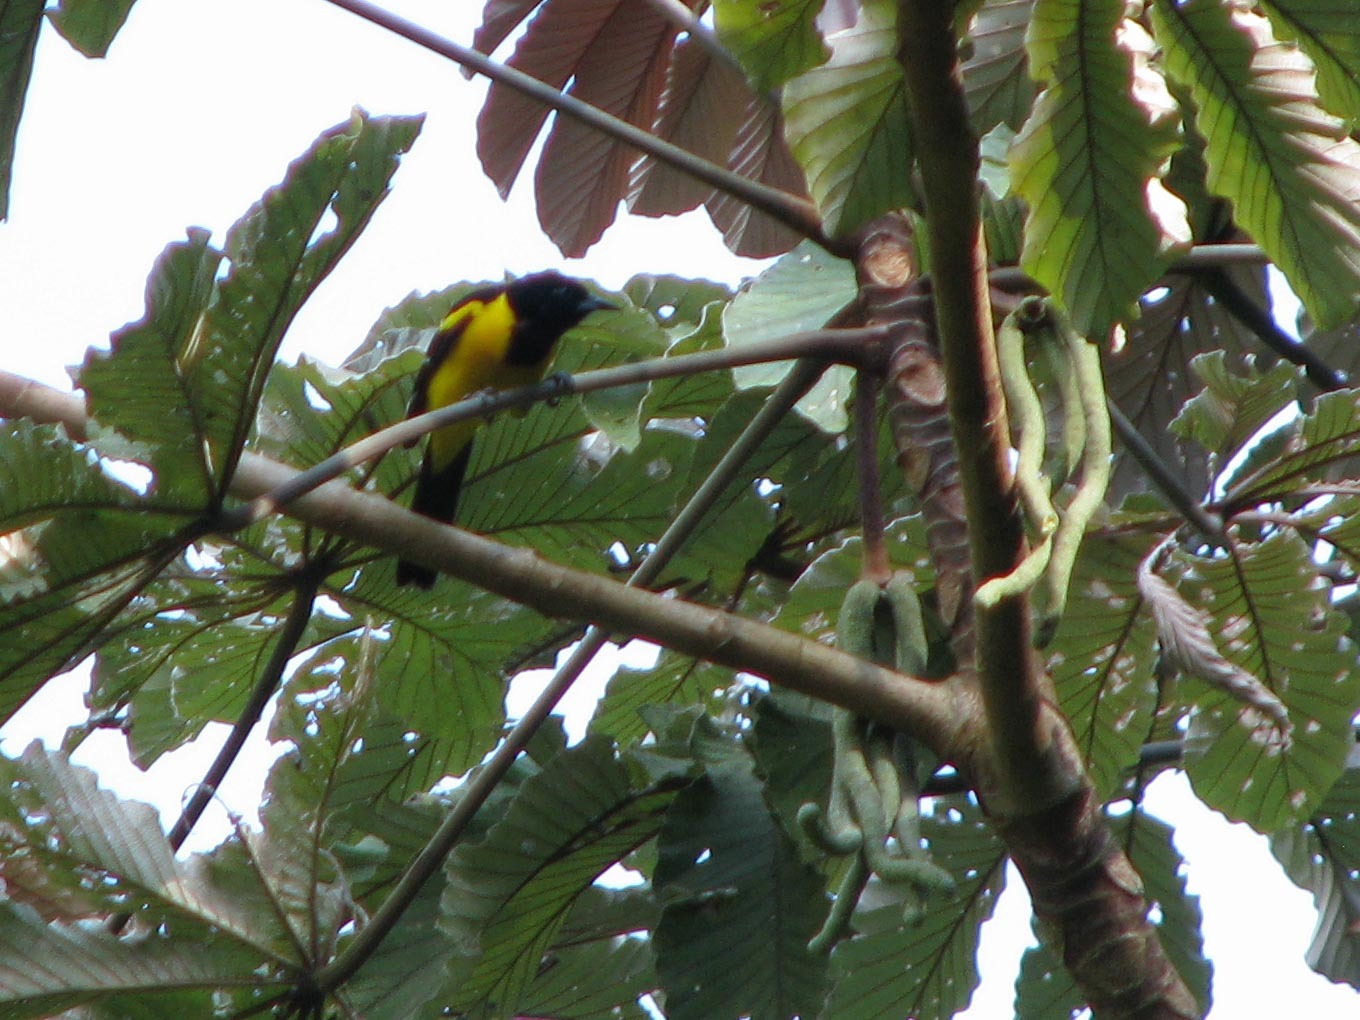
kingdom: Animalia
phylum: Chordata
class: Aves
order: Passeriformes
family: Icteridae
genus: Icterus
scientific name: Icterus maculialatus
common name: Bar-winged oriole
